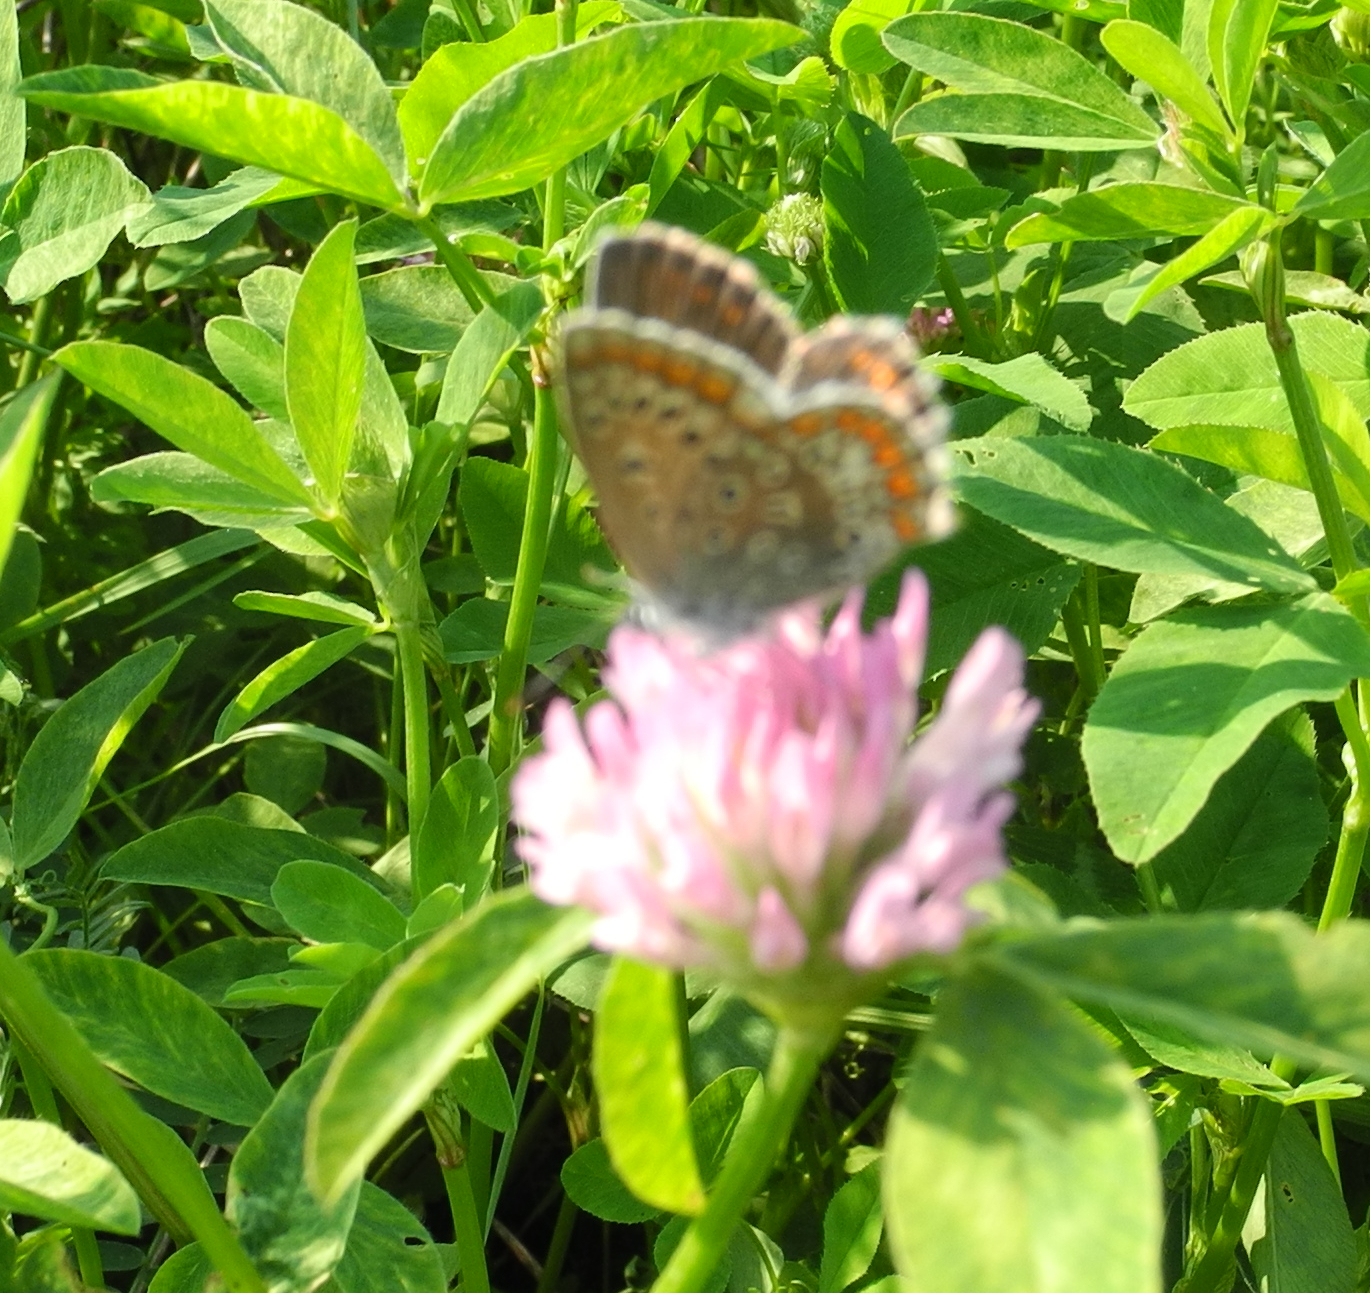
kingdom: Animalia
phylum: Arthropoda
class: Insecta
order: Lepidoptera
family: Lycaenidae
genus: Polyommatus
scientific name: Polyommatus icarus
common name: Common blue
